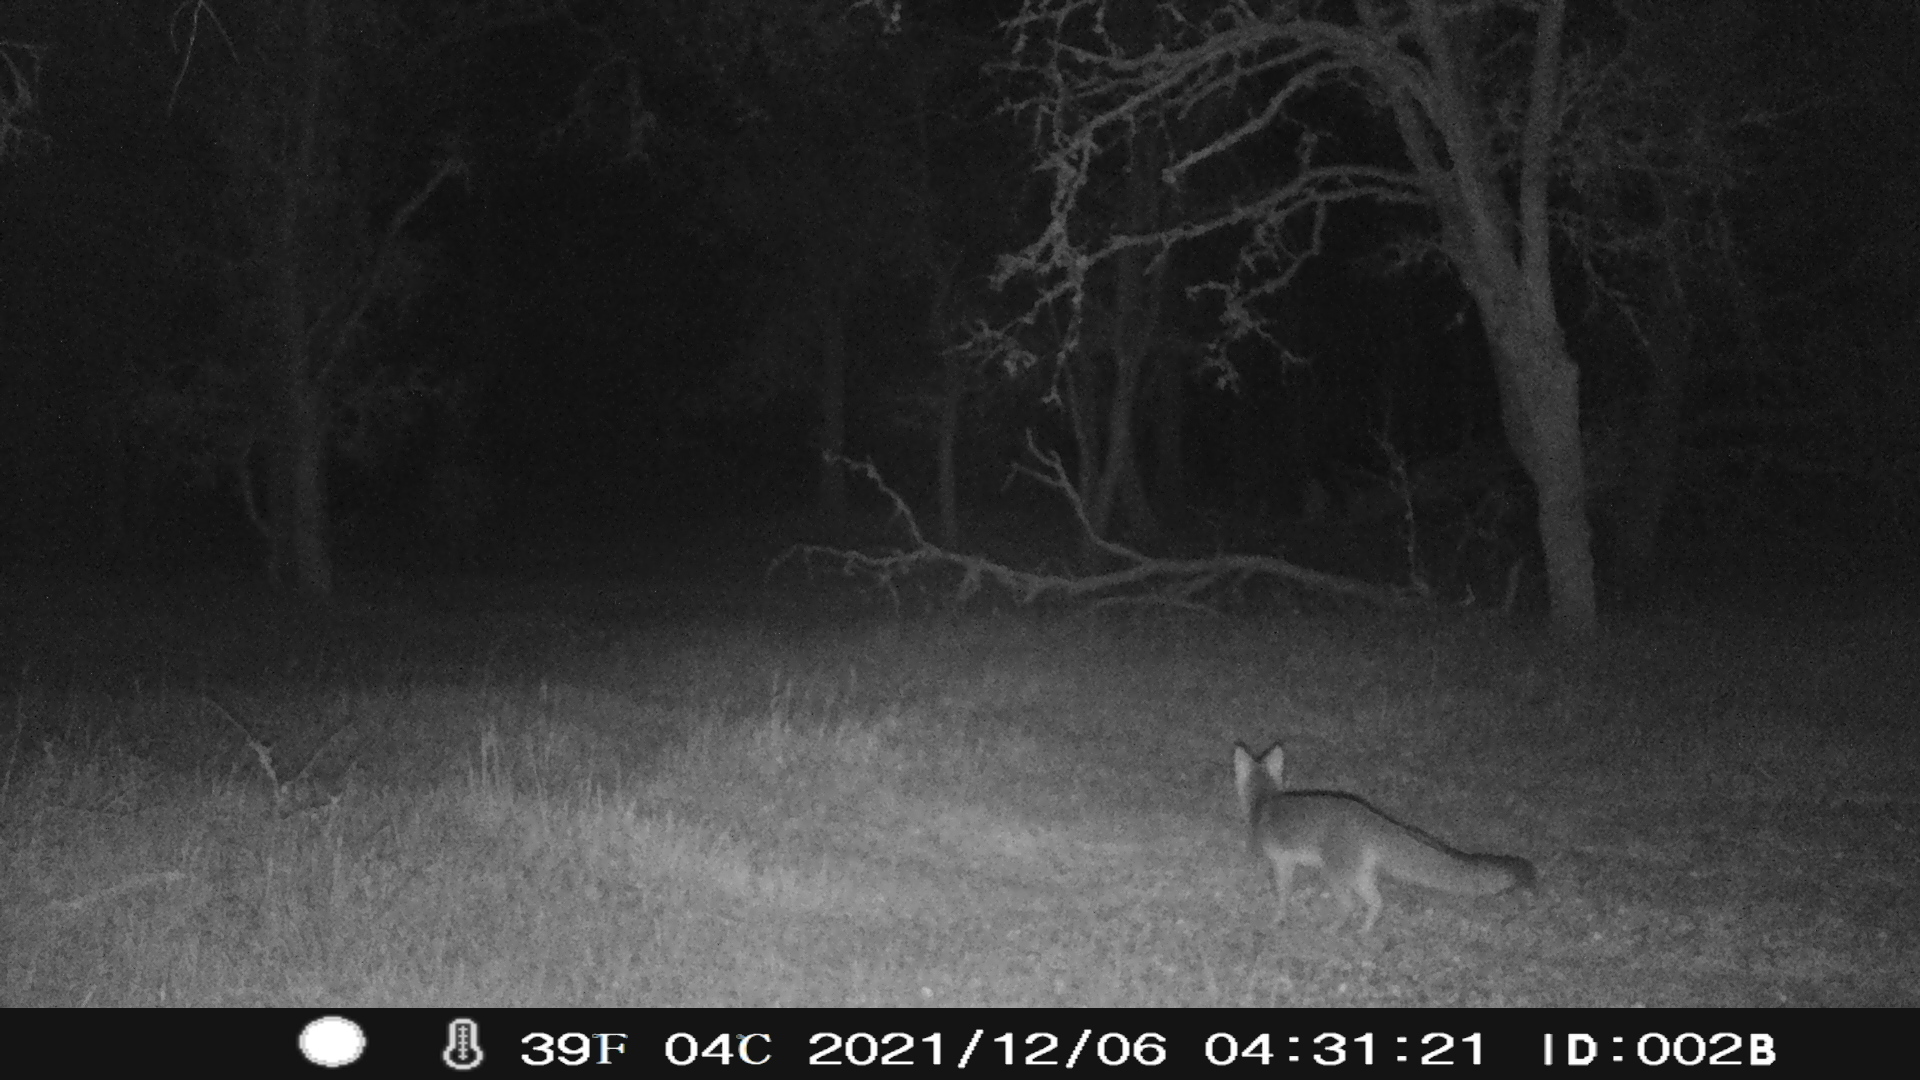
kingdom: Animalia
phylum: Chordata
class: Mammalia
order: Carnivora
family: Canidae
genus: Urocyon
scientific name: Urocyon cinereoargenteus
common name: Gray fox
